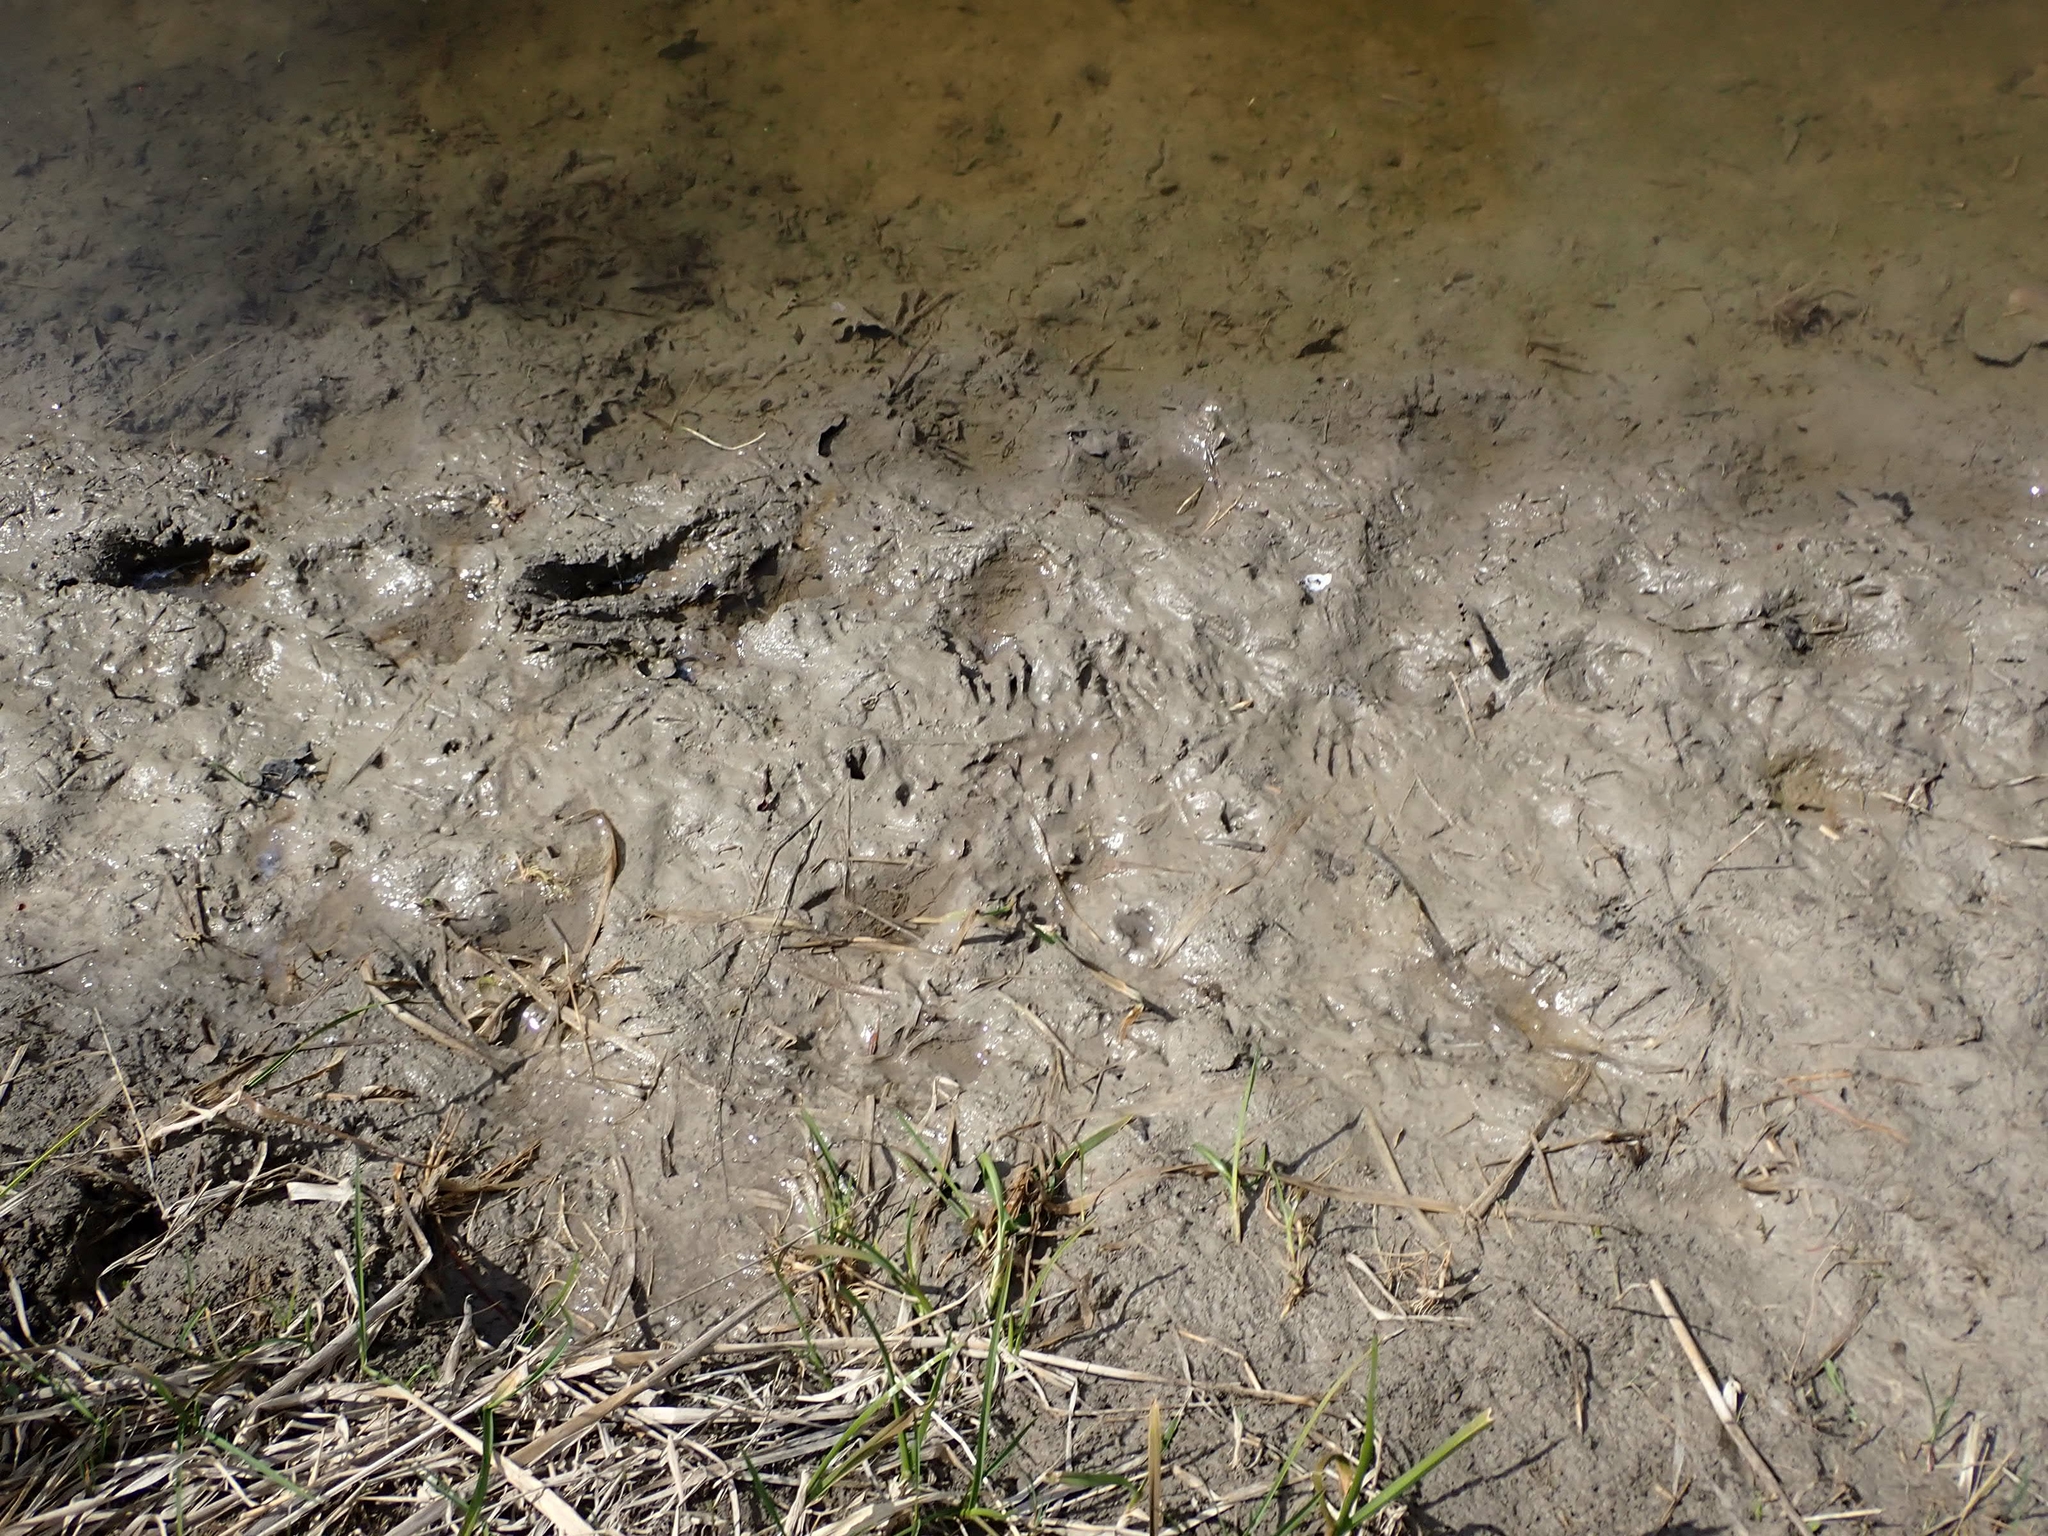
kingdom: Animalia
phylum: Chordata
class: Mammalia
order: Carnivora
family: Procyonidae
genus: Procyon
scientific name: Procyon lotor
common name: Raccoon
